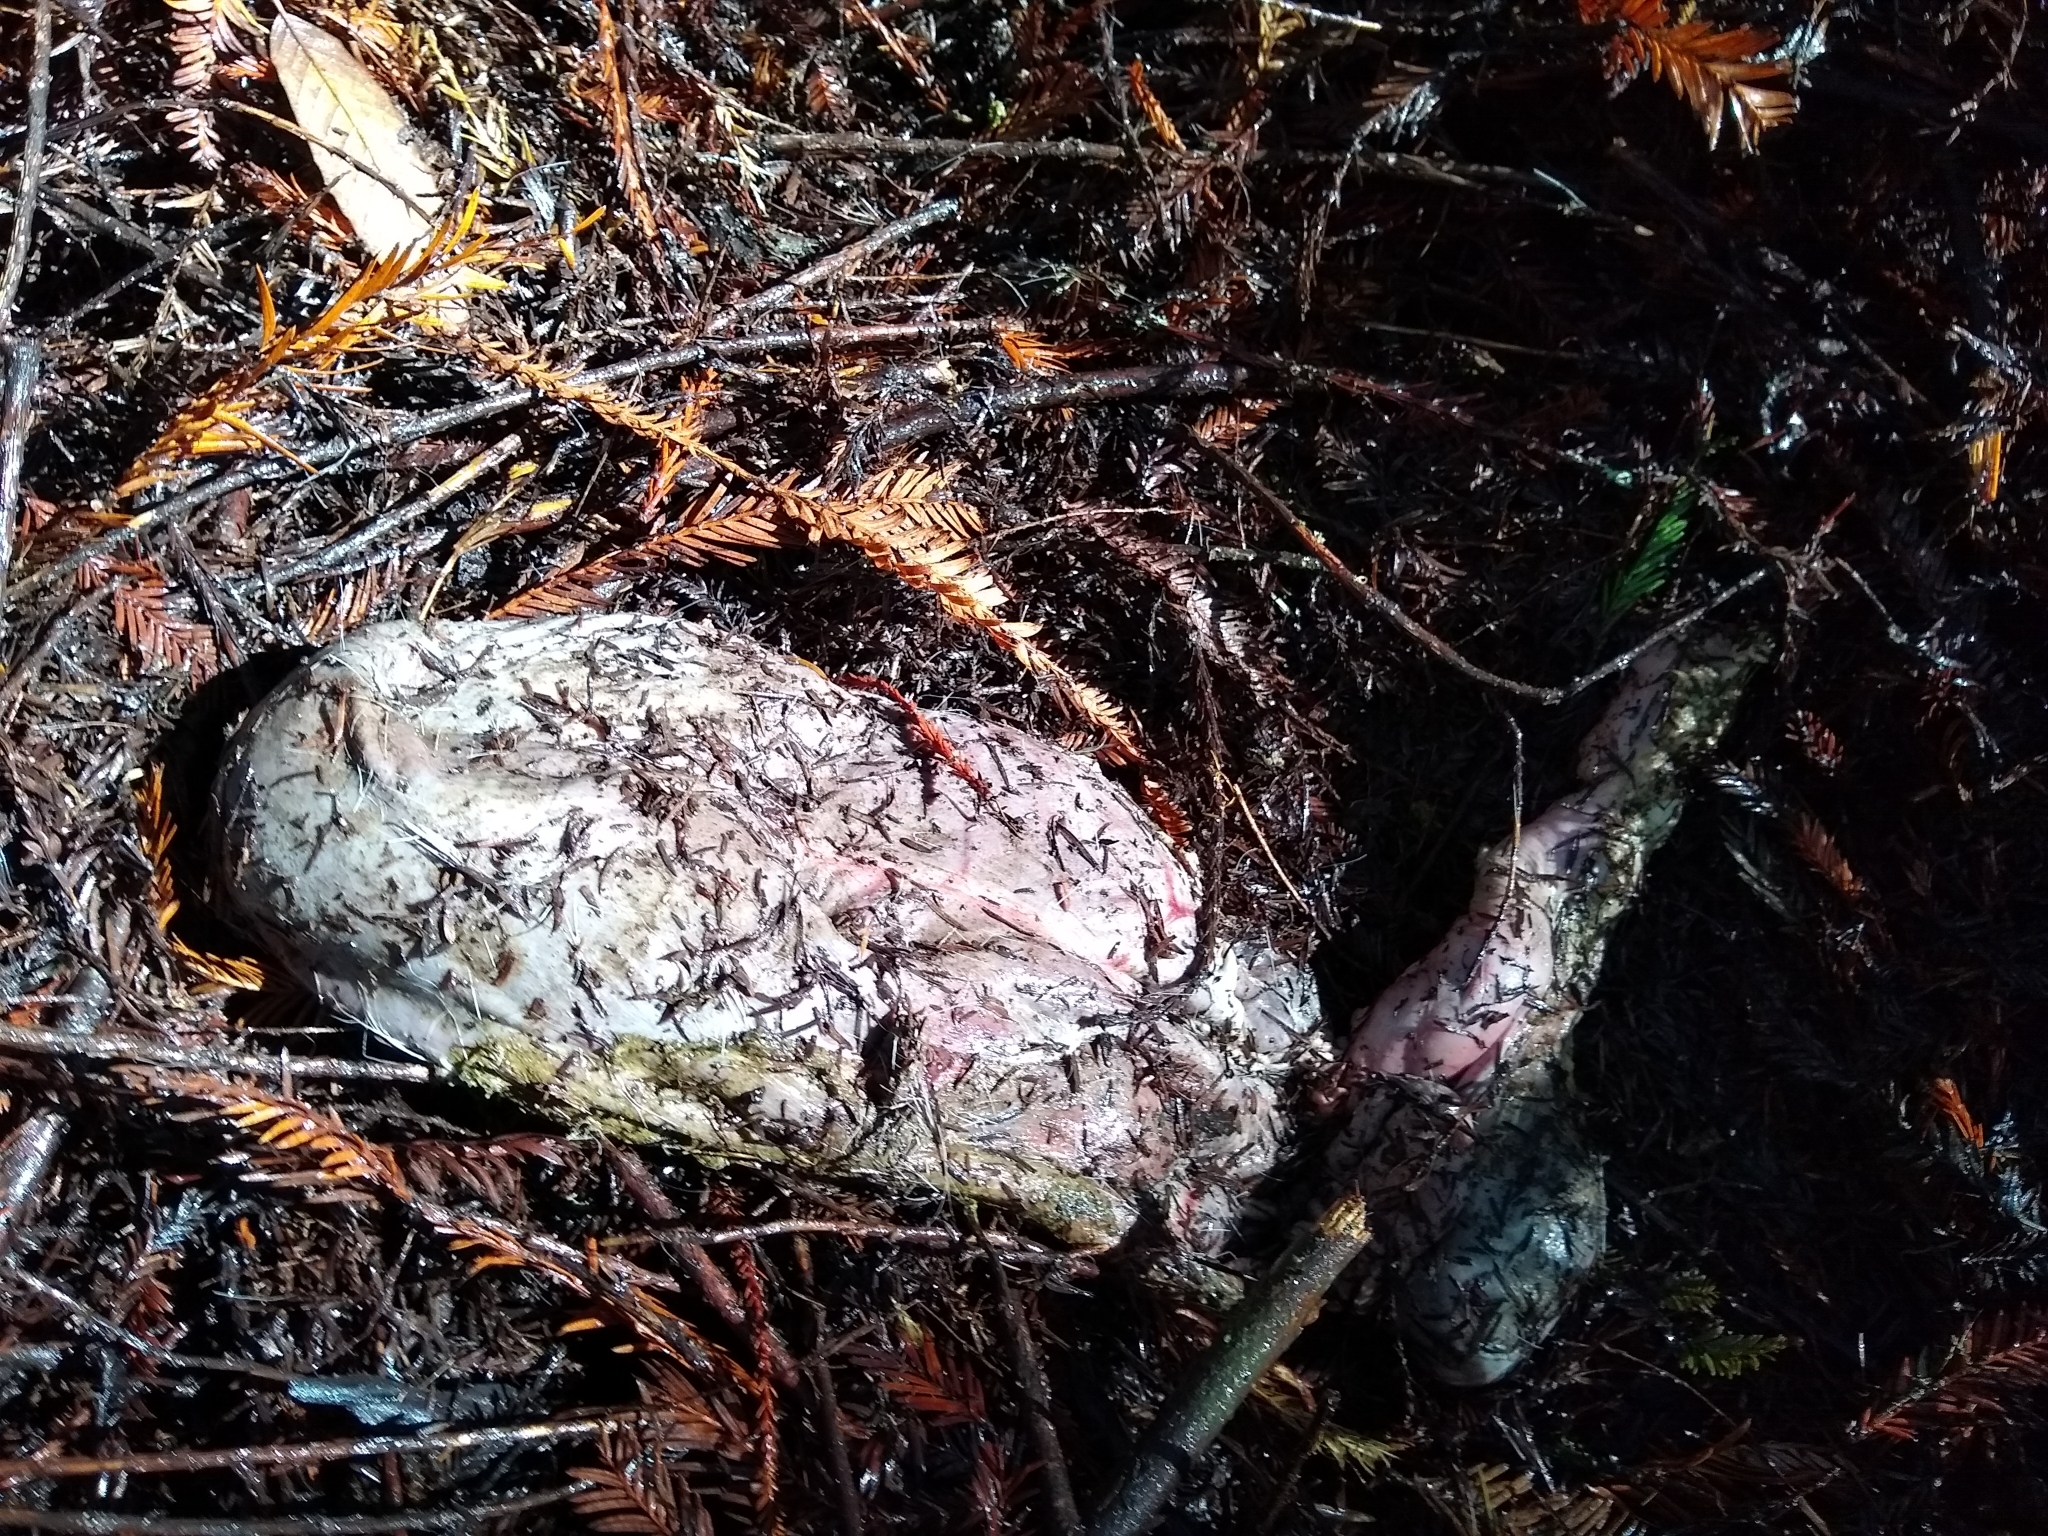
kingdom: Animalia
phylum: Chordata
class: Mammalia
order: Artiodactyla
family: Cervidae
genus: Odocoileus
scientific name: Odocoileus hemionus
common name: Mule deer
